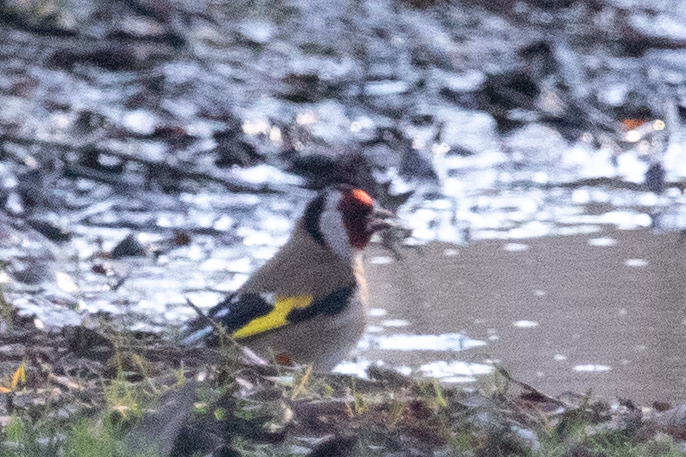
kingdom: Animalia
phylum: Chordata
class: Aves
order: Passeriformes
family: Fringillidae
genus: Carduelis
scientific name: Carduelis carduelis
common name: European goldfinch
